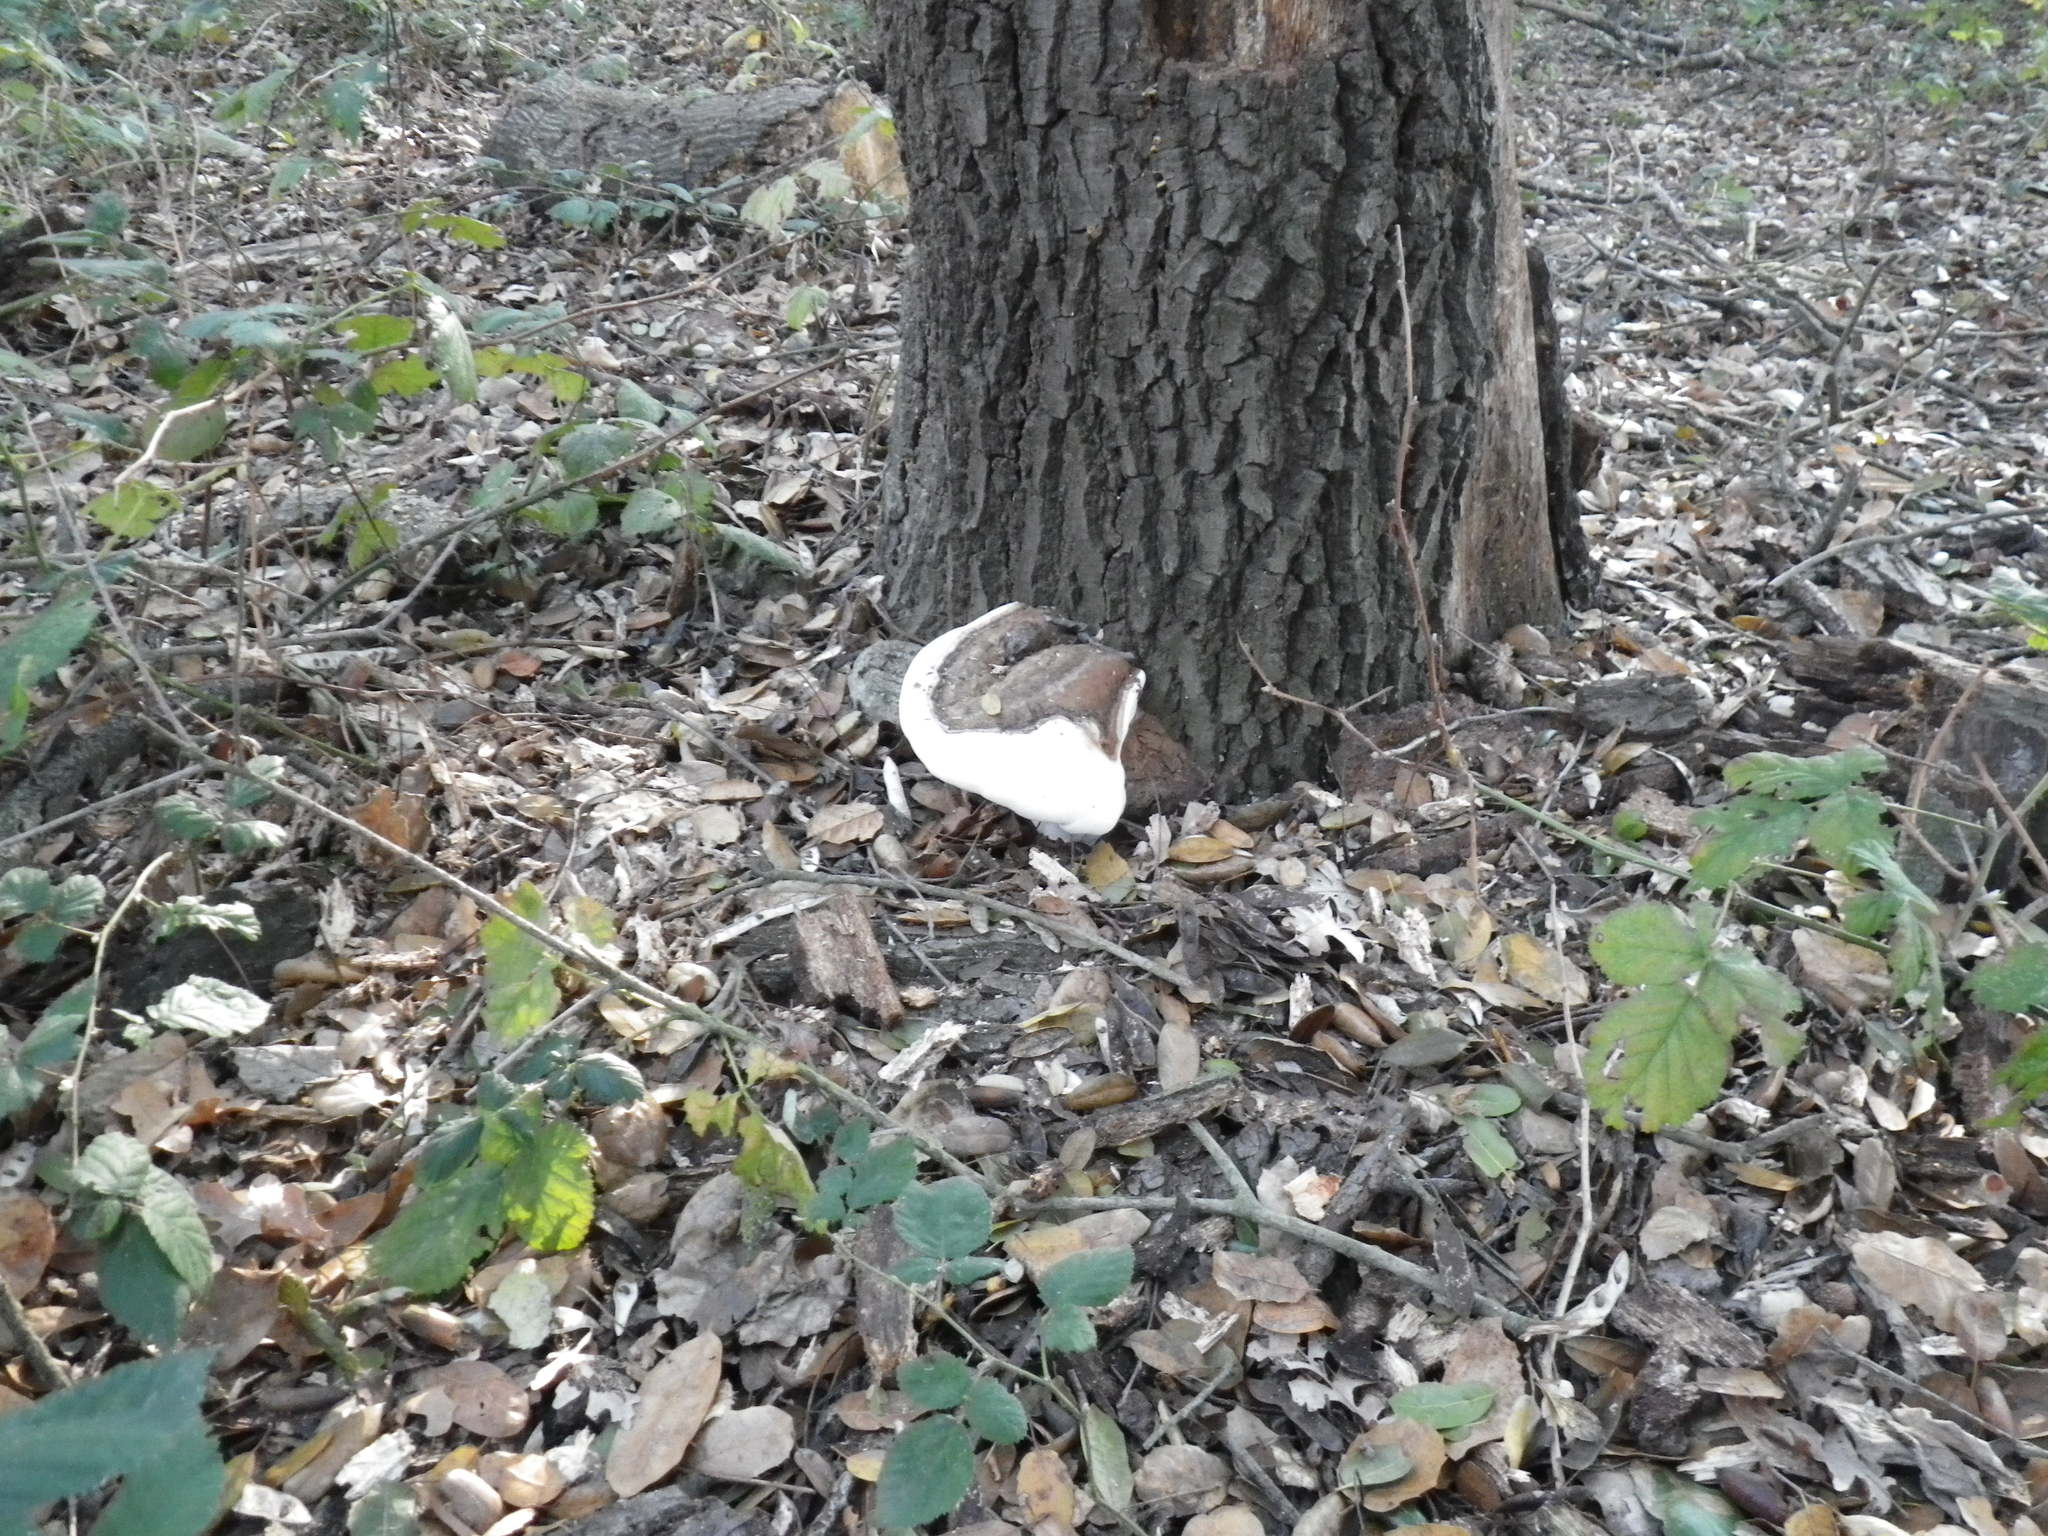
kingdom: Fungi
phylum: Basidiomycota
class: Agaricomycetes
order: Polyporales
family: Polyporaceae
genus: Ganoderma
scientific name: Ganoderma brownii
